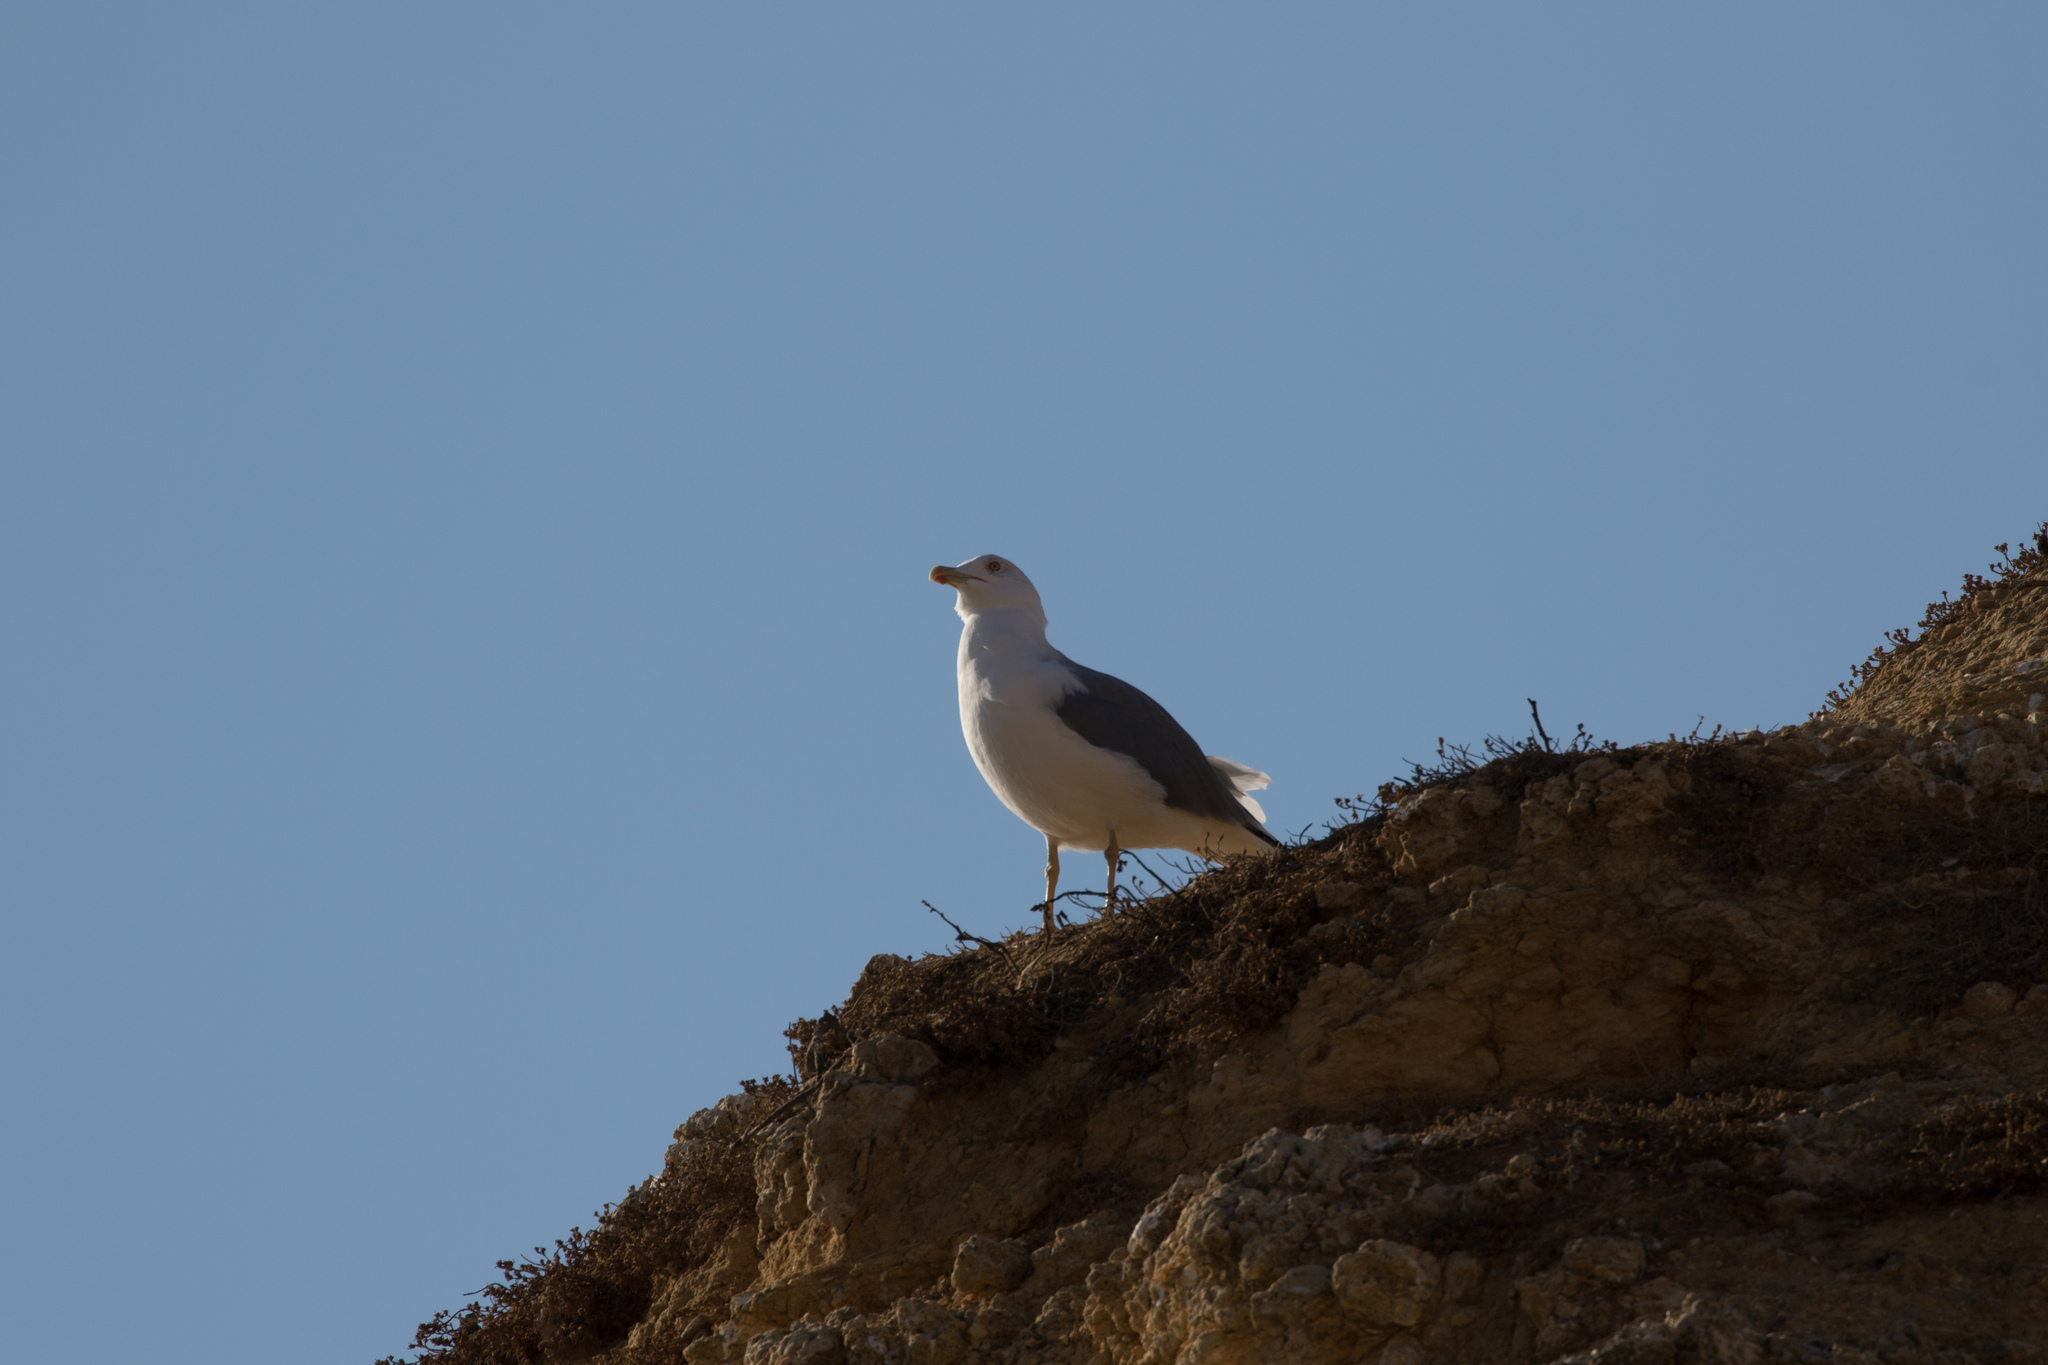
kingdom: Animalia
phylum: Chordata
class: Aves
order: Charadriiformes
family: Laridae
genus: Larus
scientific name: Larus michahellis
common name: Yellow-legged gull
